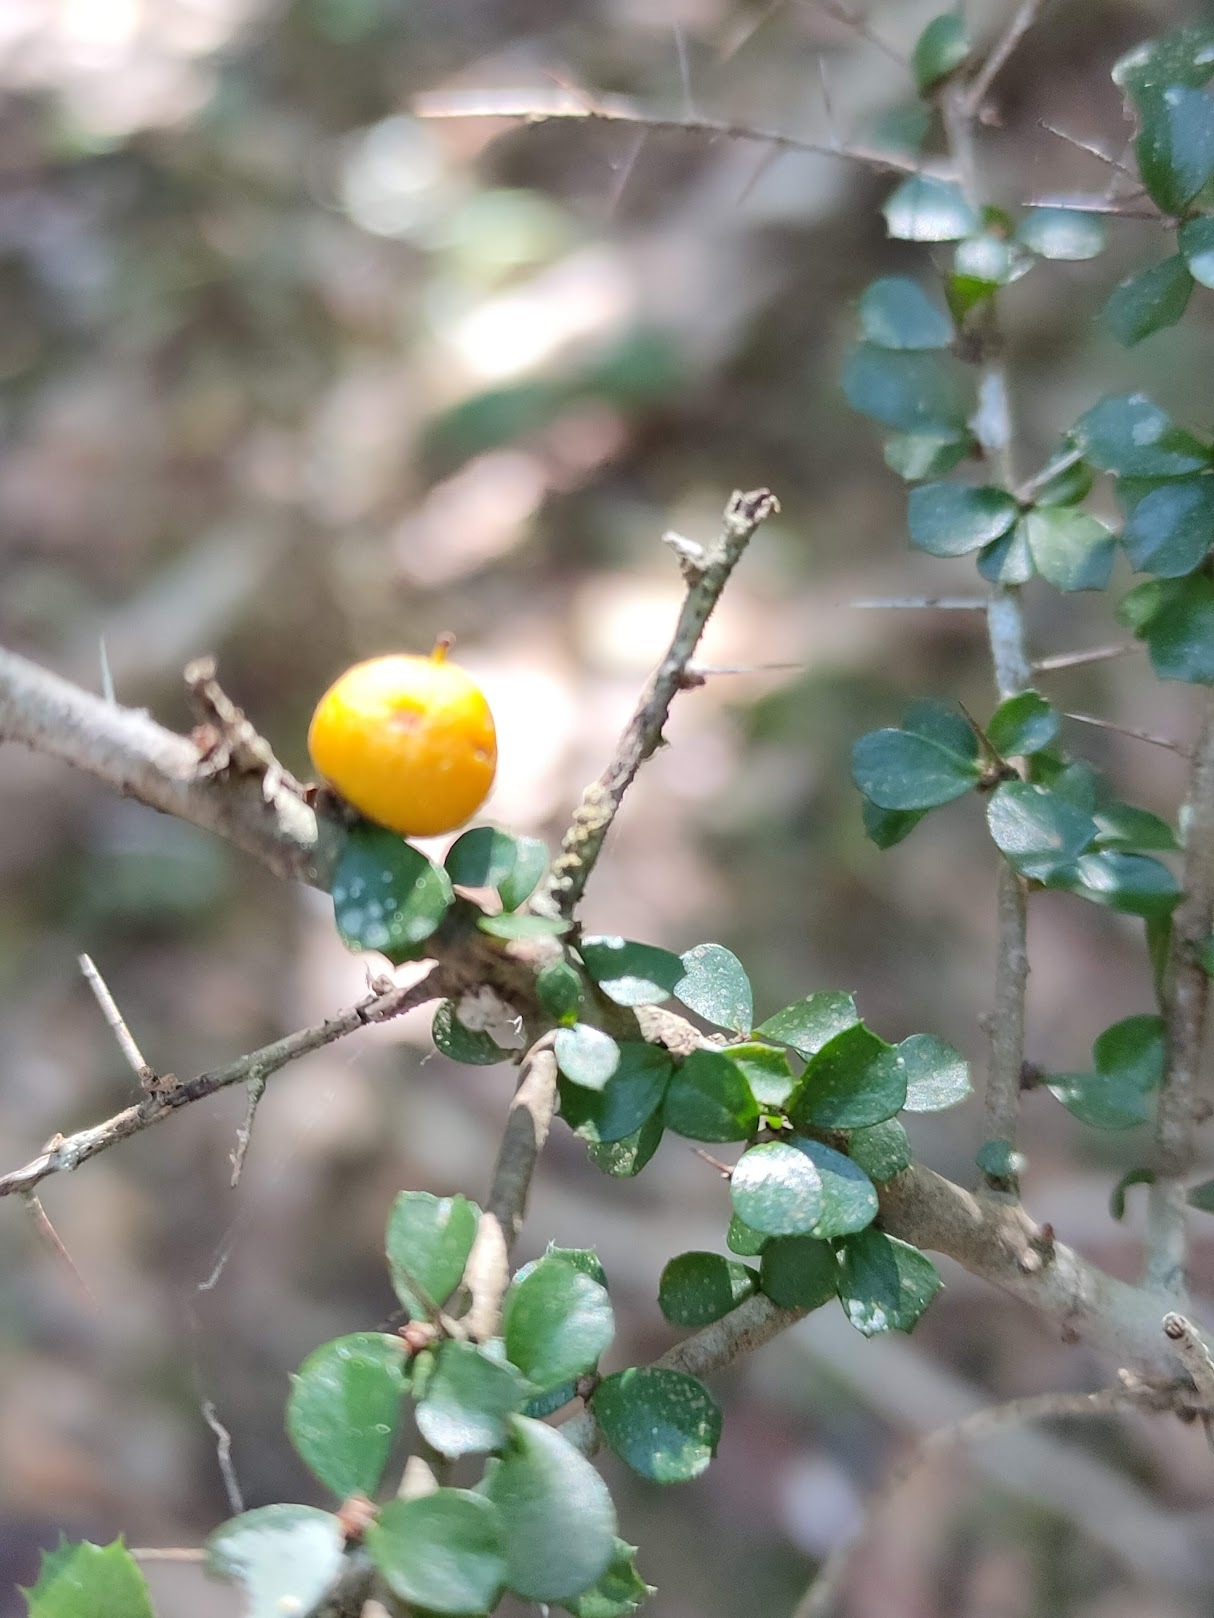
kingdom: Plantae
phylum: Tracheophyta
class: Magnoliopsida
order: Apiales
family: Pittosporaceae
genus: Pittosporum
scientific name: Pittosporum multiflorum
